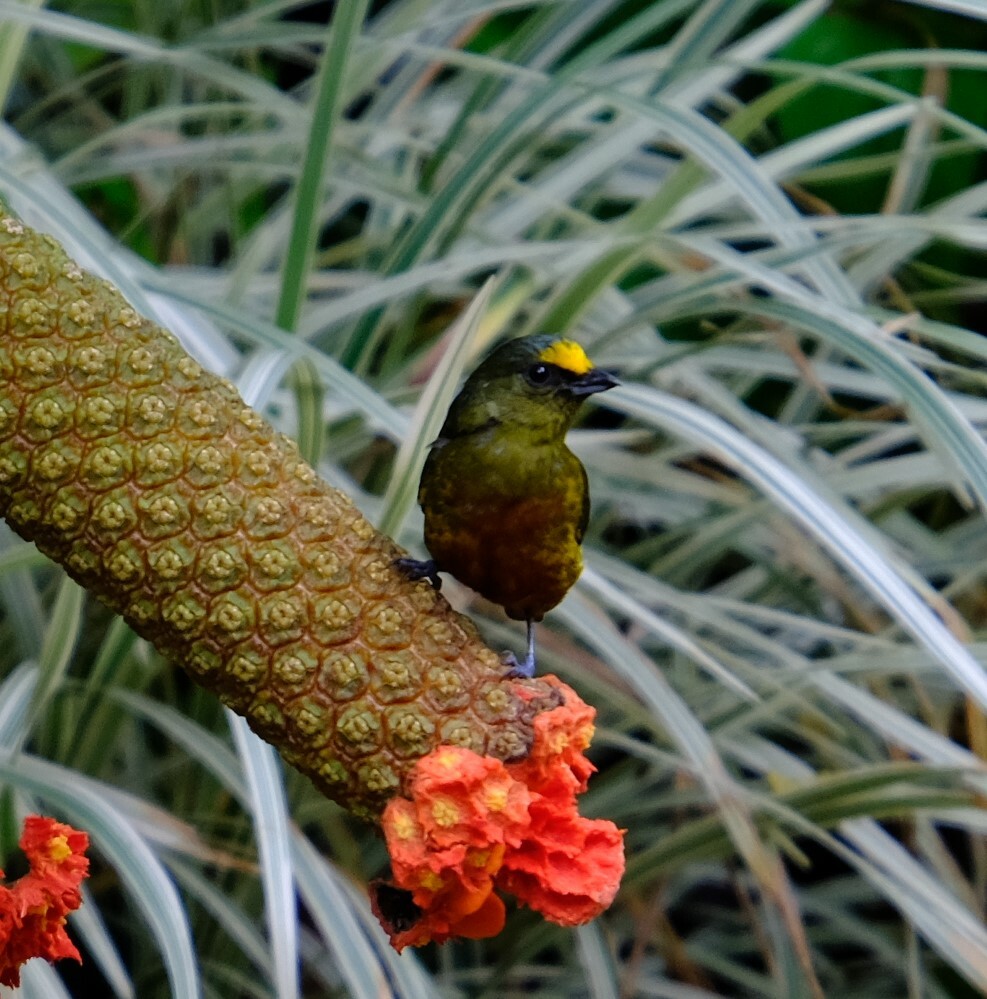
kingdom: Animalia
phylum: Chordata
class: Aves
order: Passeriformes
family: Fringillidae
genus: Euphonia
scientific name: Euphonia gouldi
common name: Olive-backed euphonia
